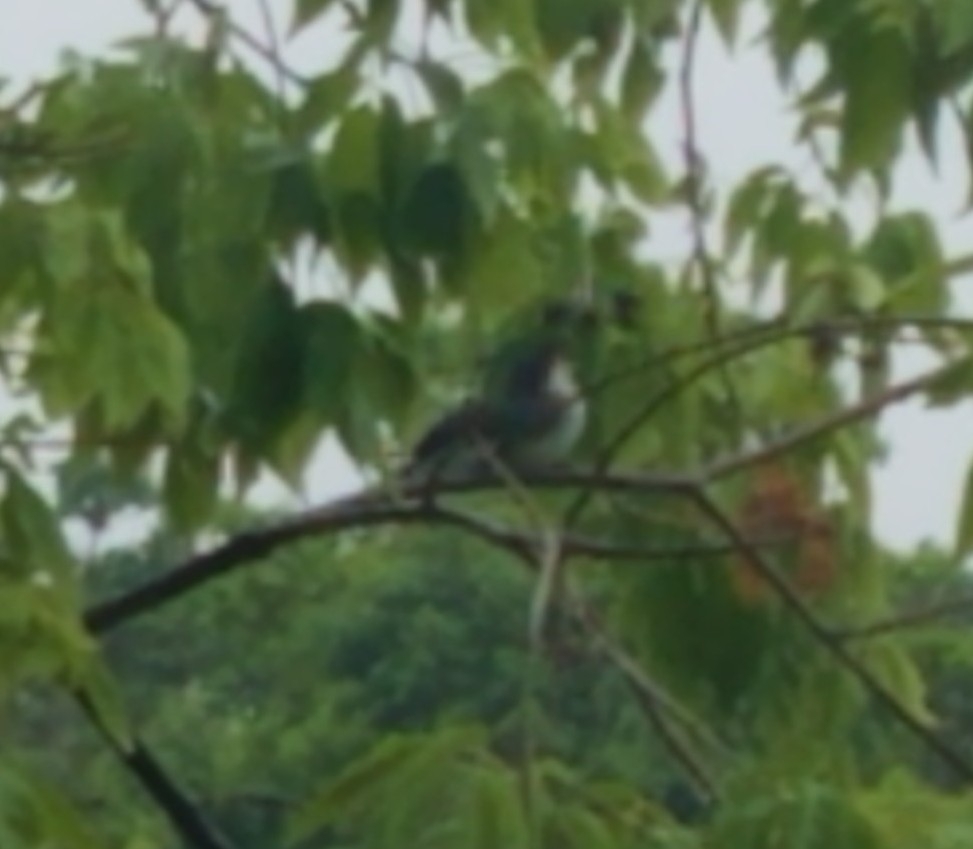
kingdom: Animalia
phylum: Chordata
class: Aves
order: Passeriformes
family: Tyrannidae
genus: Tyrannus
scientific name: Tyrannus tyrannus
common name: Eastern kingbird
